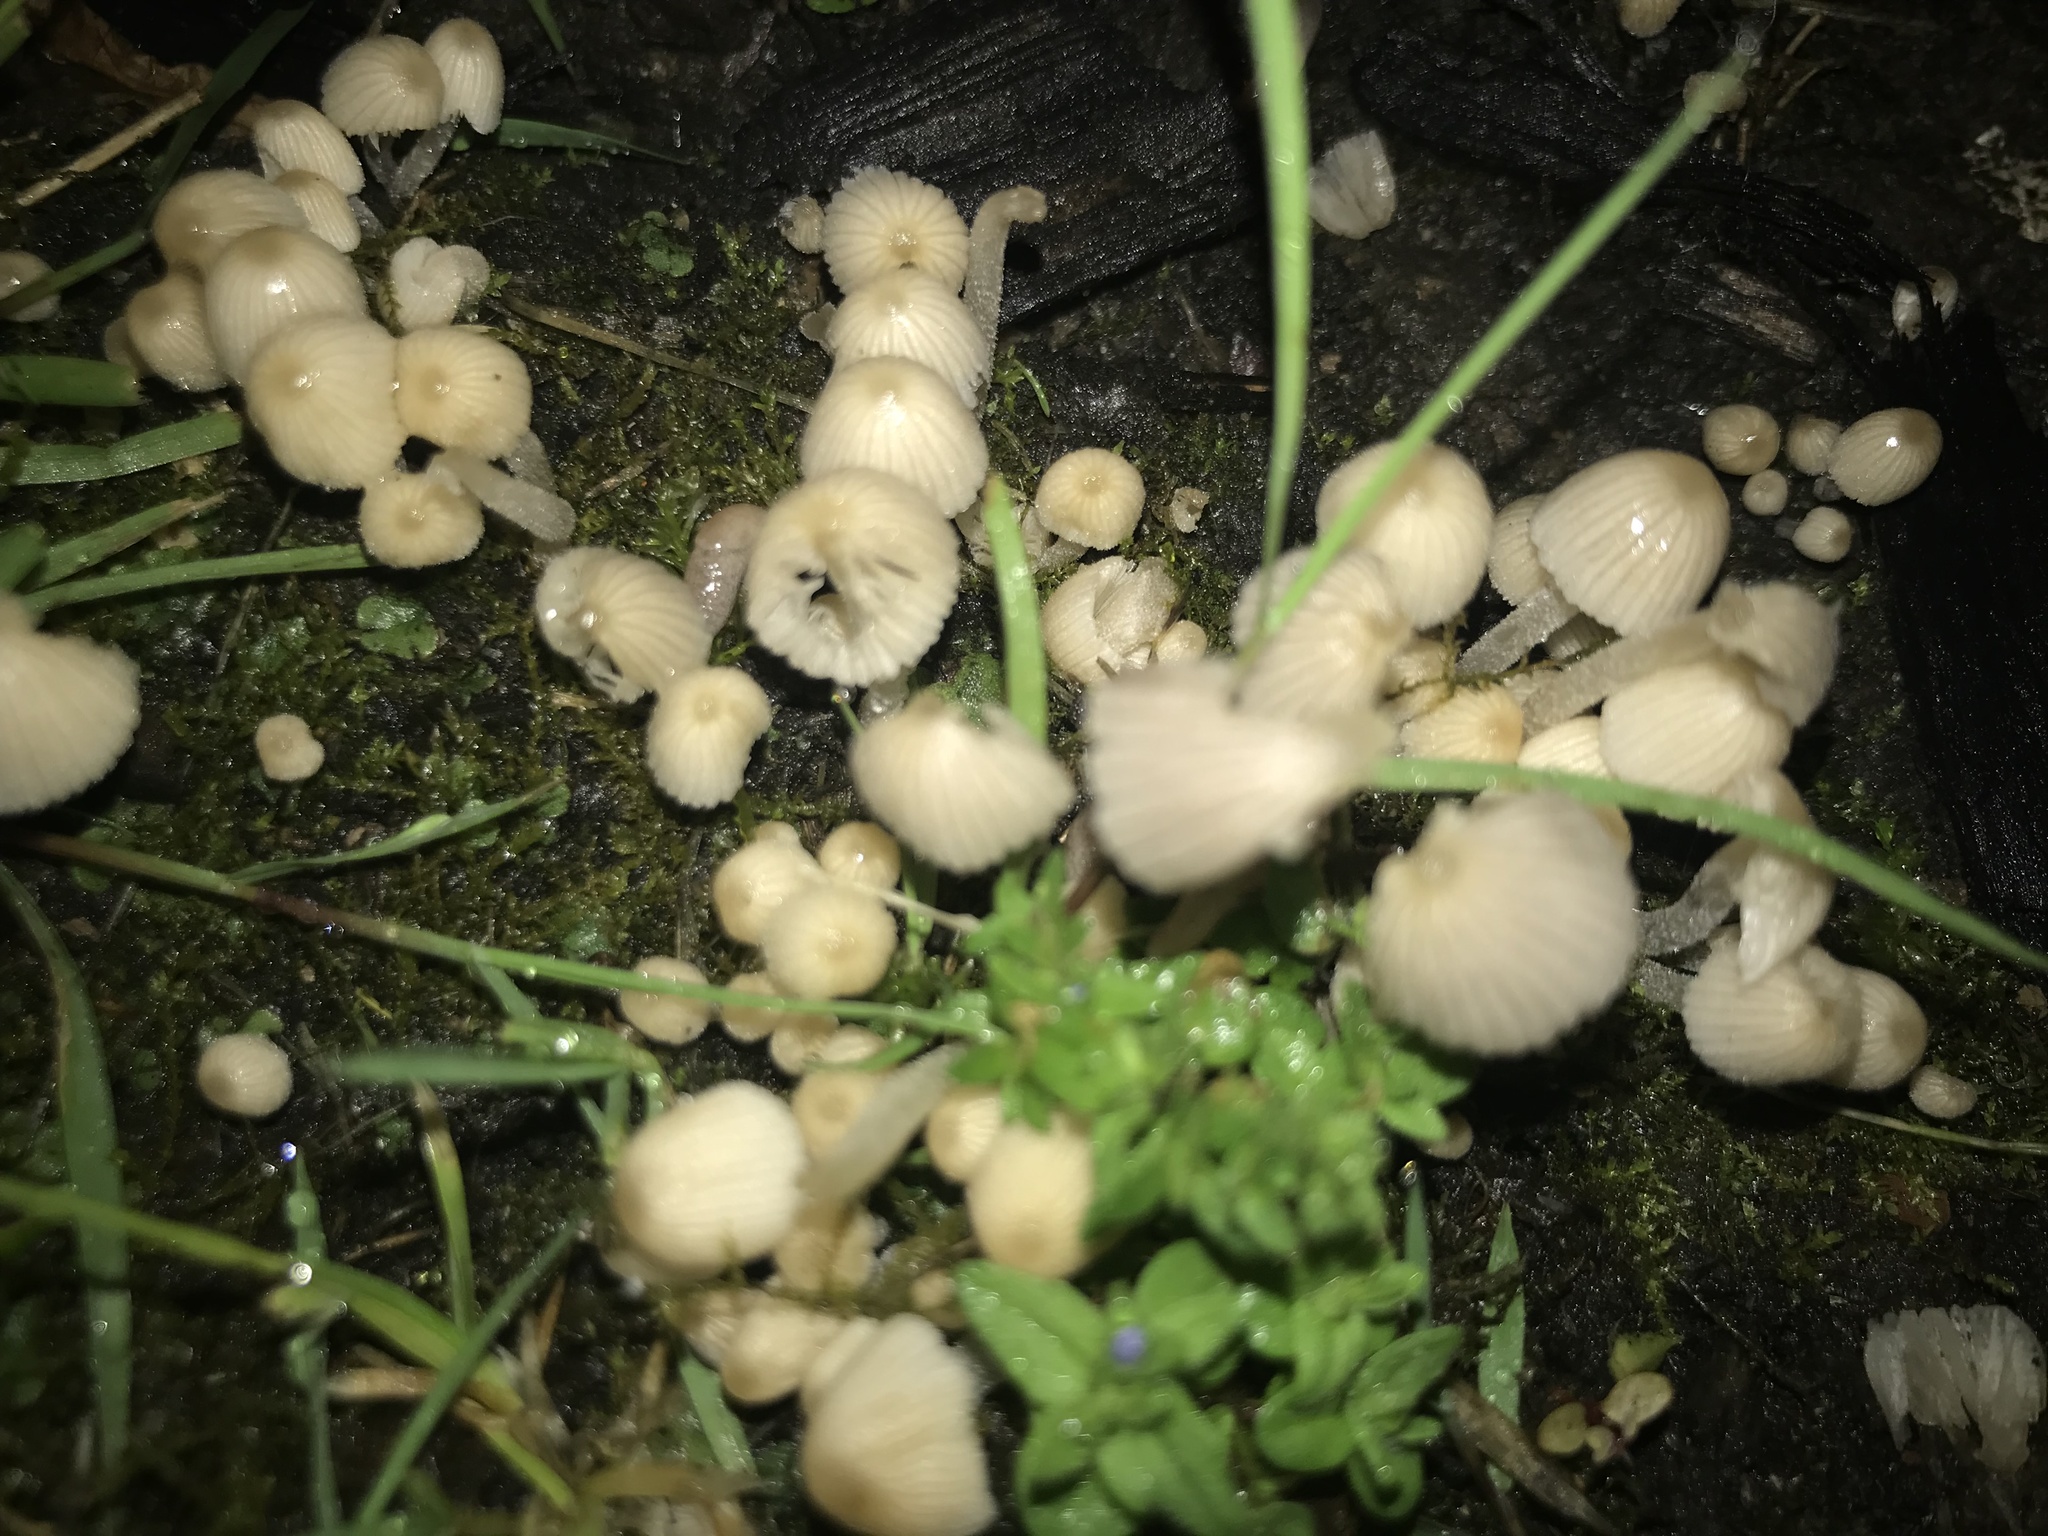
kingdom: Fungi
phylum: Basidiomycota
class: Agaricomycetes
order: Agaricales
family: Psathyrellaceae
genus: Coprinellus
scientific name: Coprinellus disseminatus
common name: Fairies' bonnets
